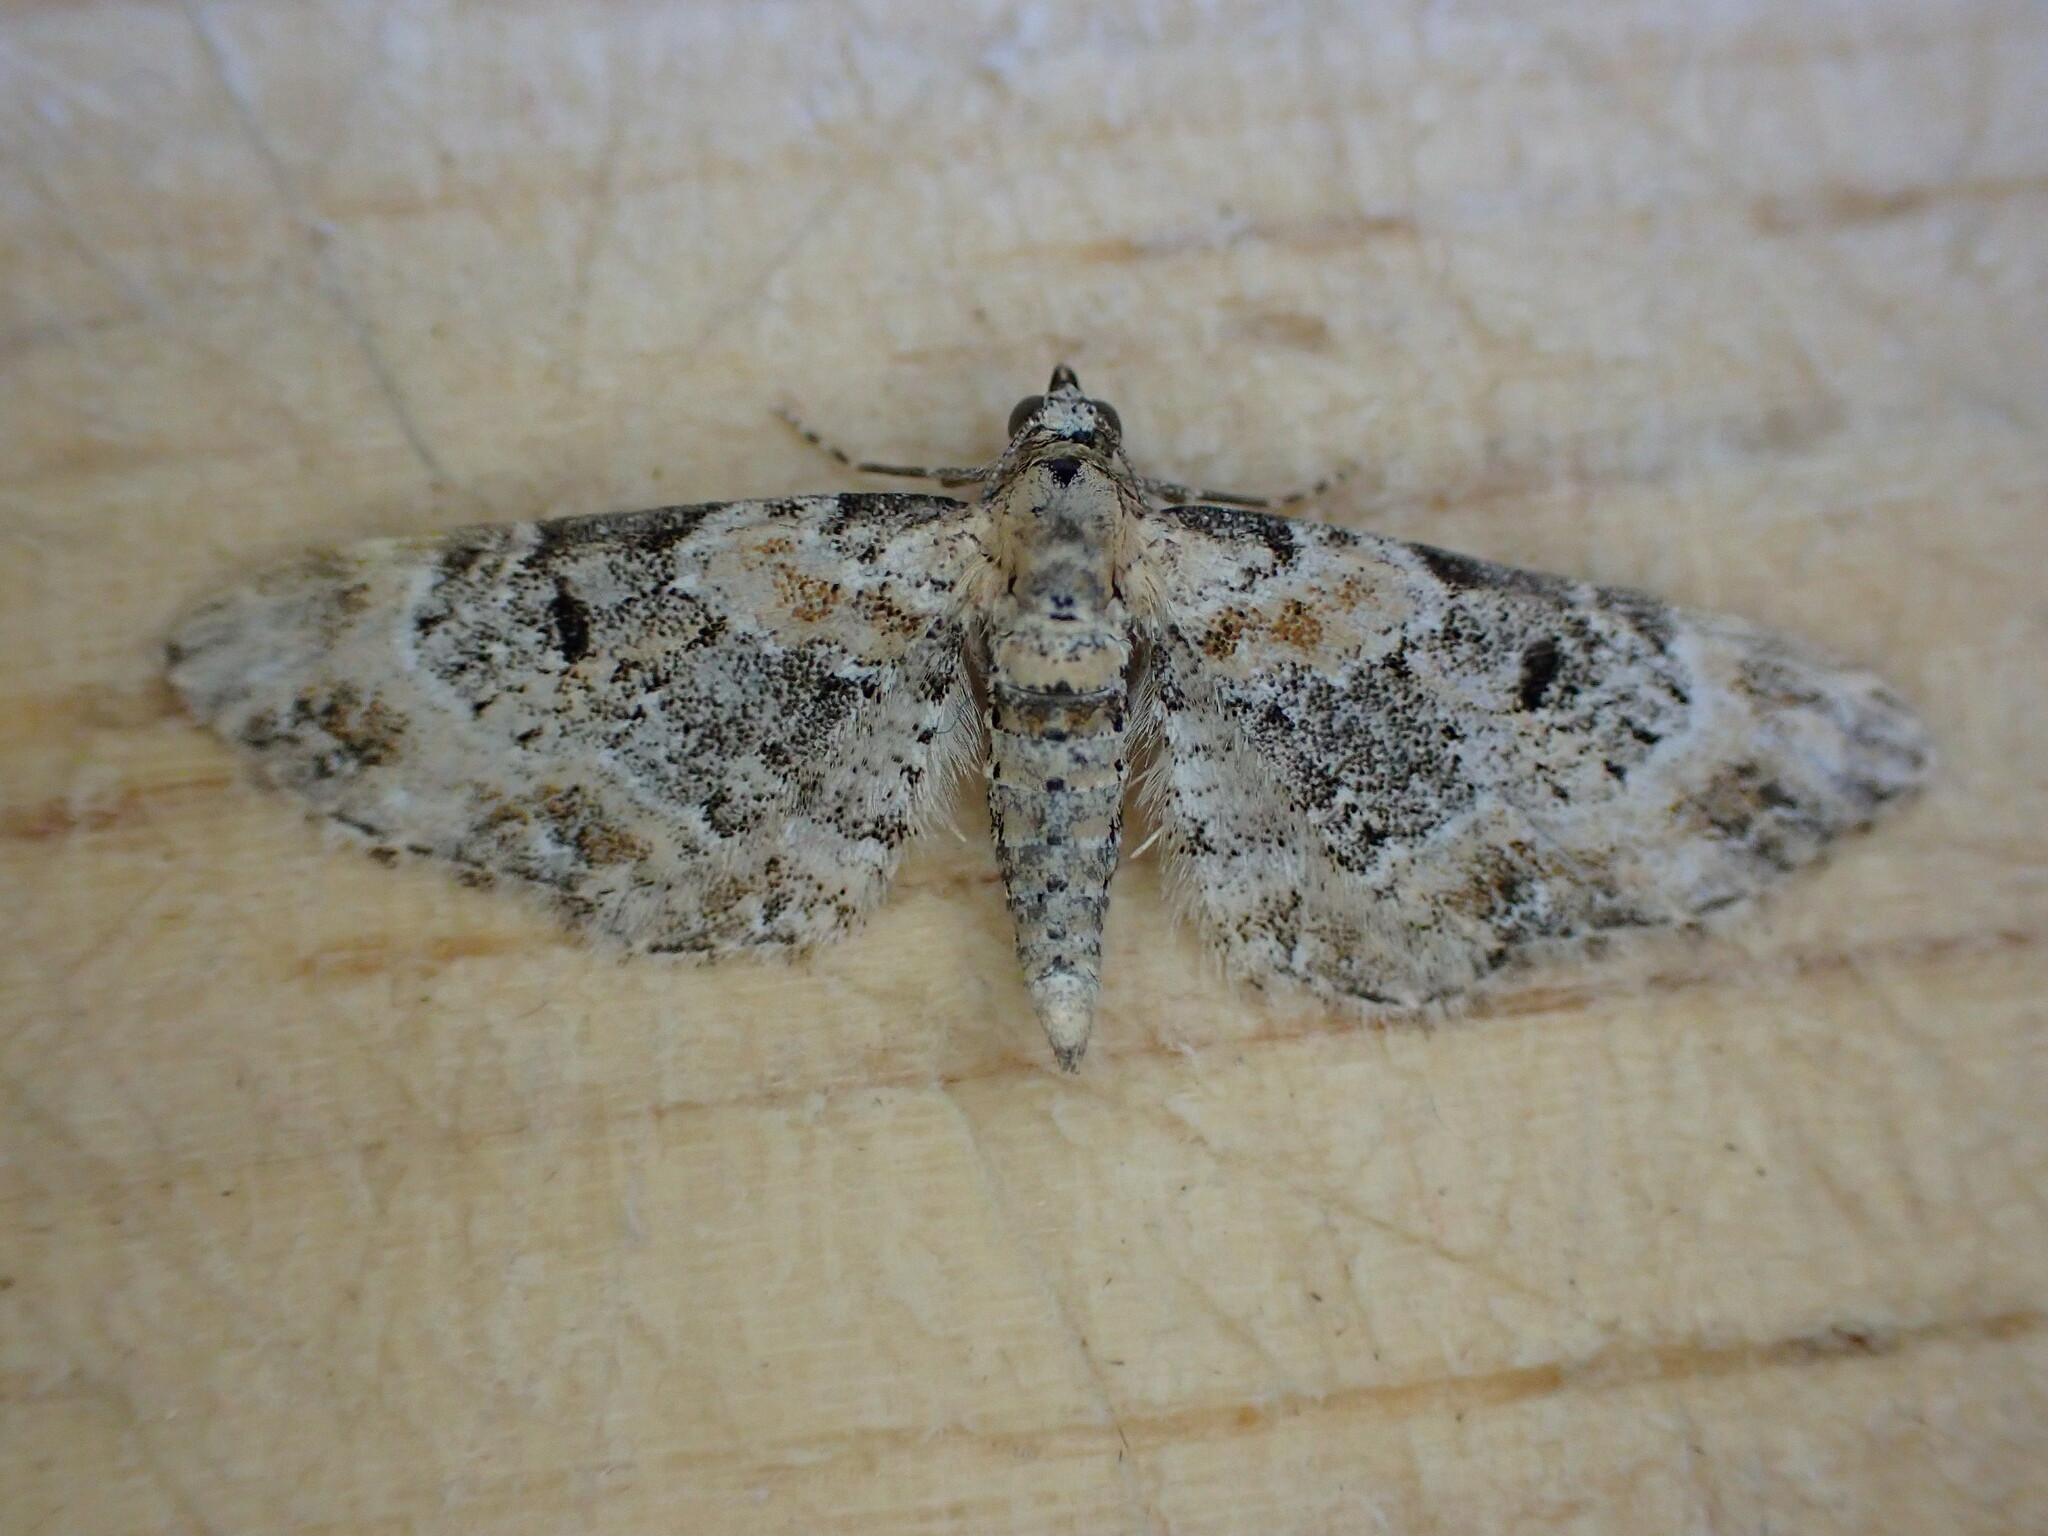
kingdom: Animalia
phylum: Arthropoda
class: Insecta
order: Lepidoptera
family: Geometridae
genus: Eupithecia
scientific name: Eupithecia pulchellata
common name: Foxglove pug
